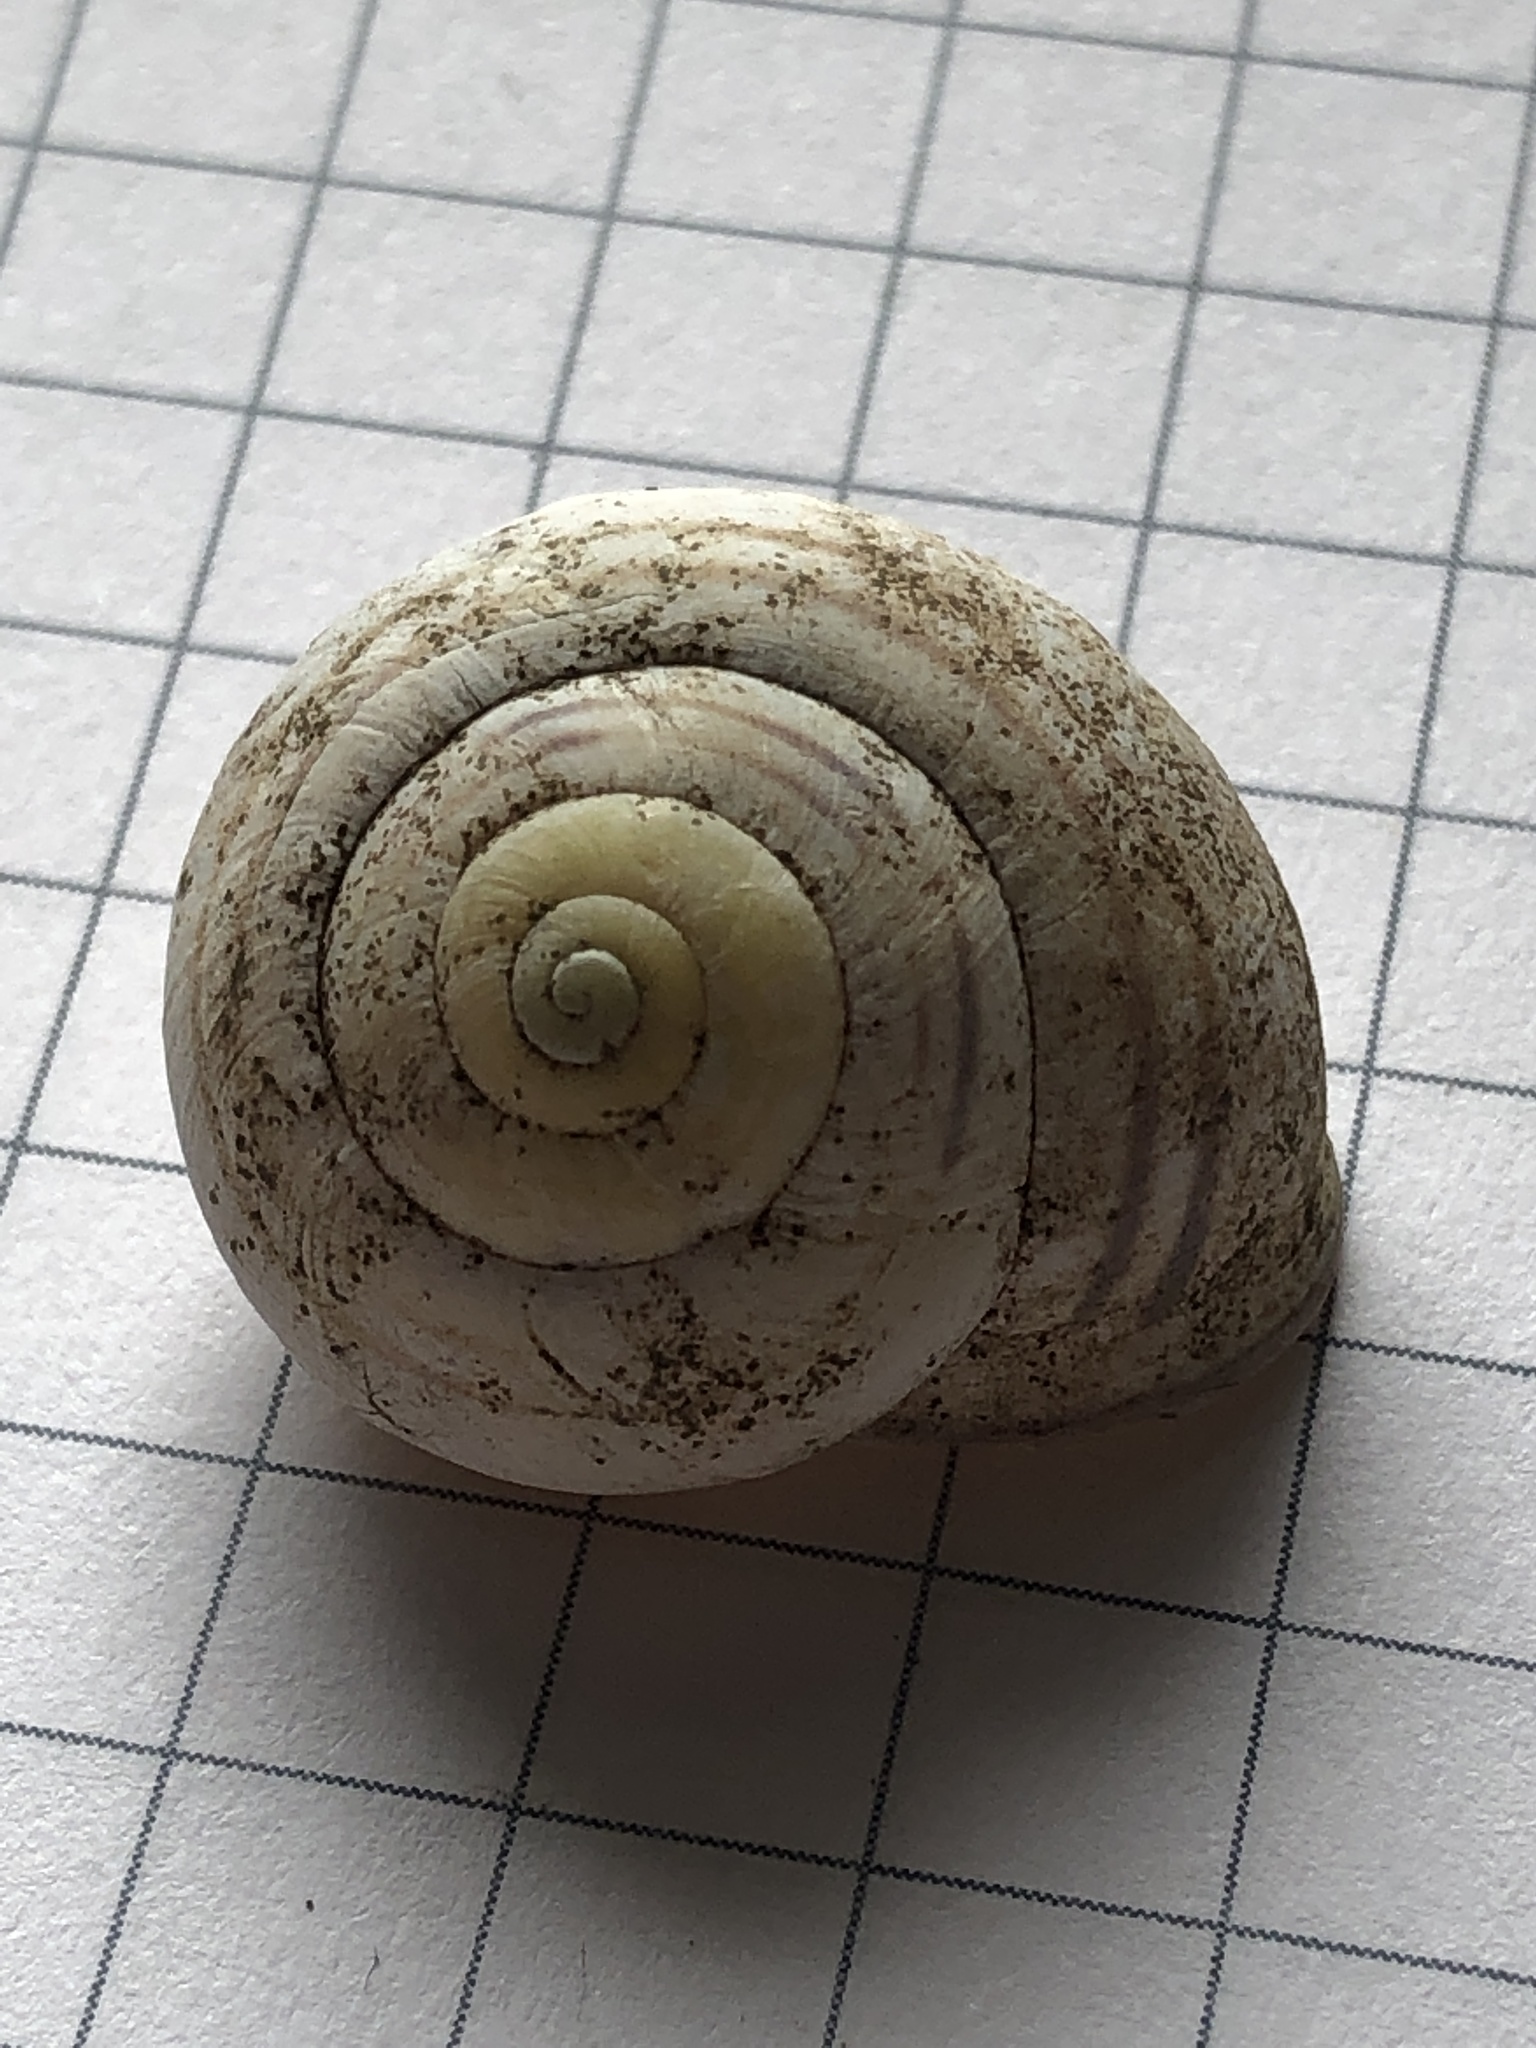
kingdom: Animalia
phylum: Mollusca
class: Gastropoda
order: Stylommatophora
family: Helicidae
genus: Cepaea
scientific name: Cepaea nemoralis
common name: Grovesnail
